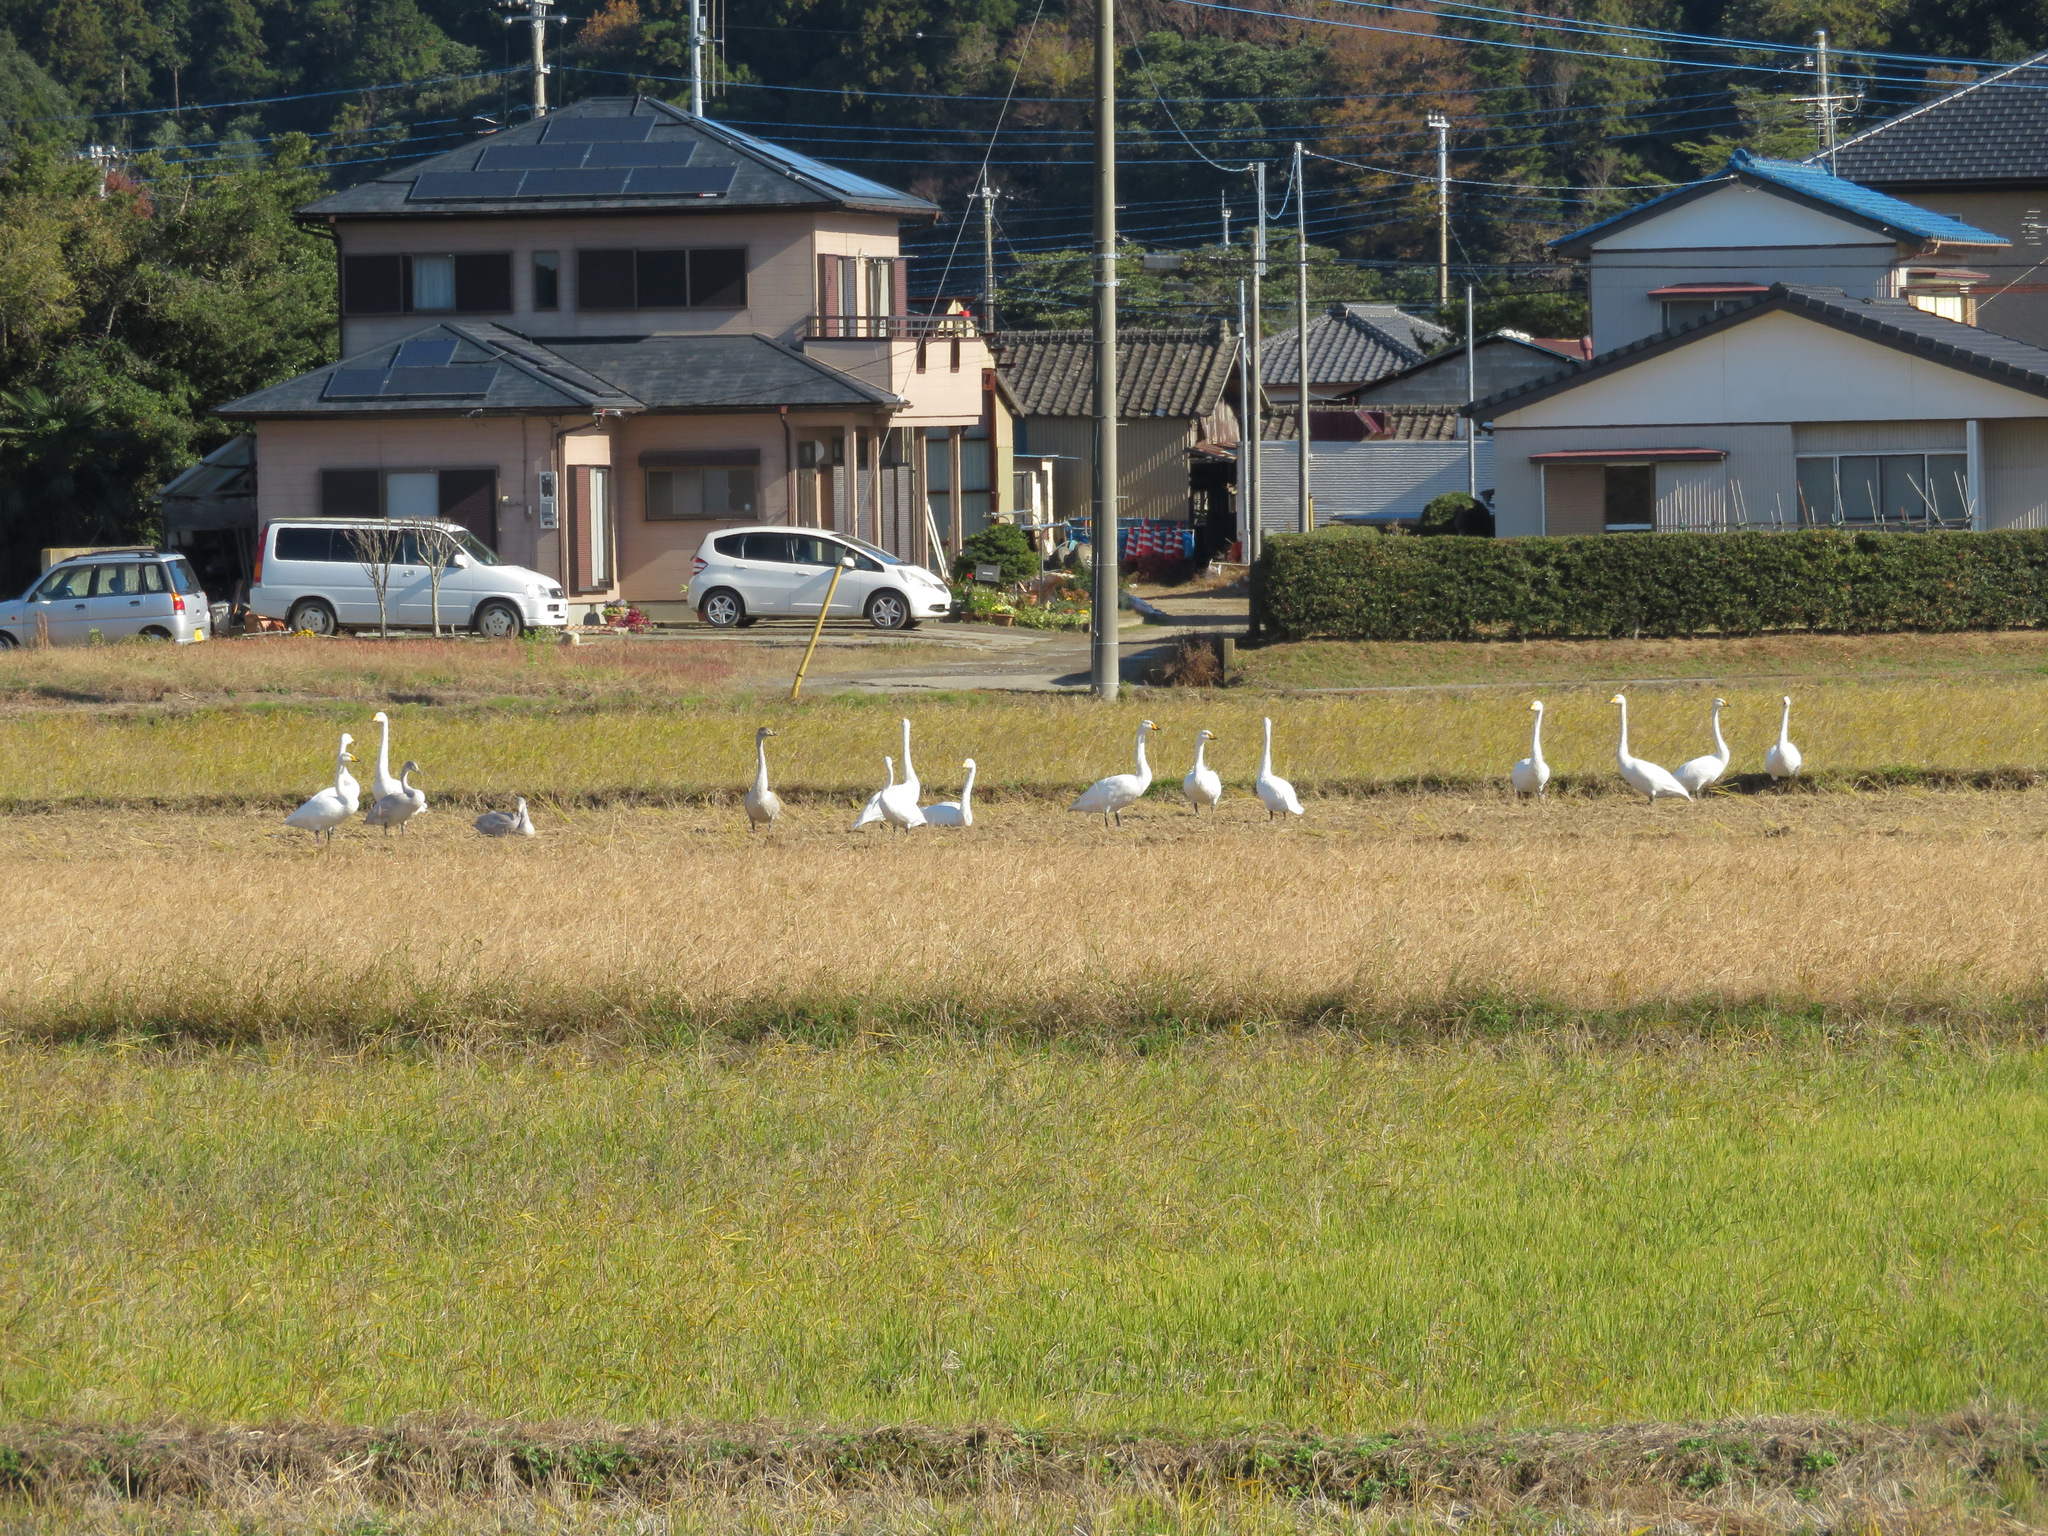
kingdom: Animalia
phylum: Chordata
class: Aves
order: Anseriformes
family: Anatidae
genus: Cygnus
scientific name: Cygnus cygnus
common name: Whooper swan
